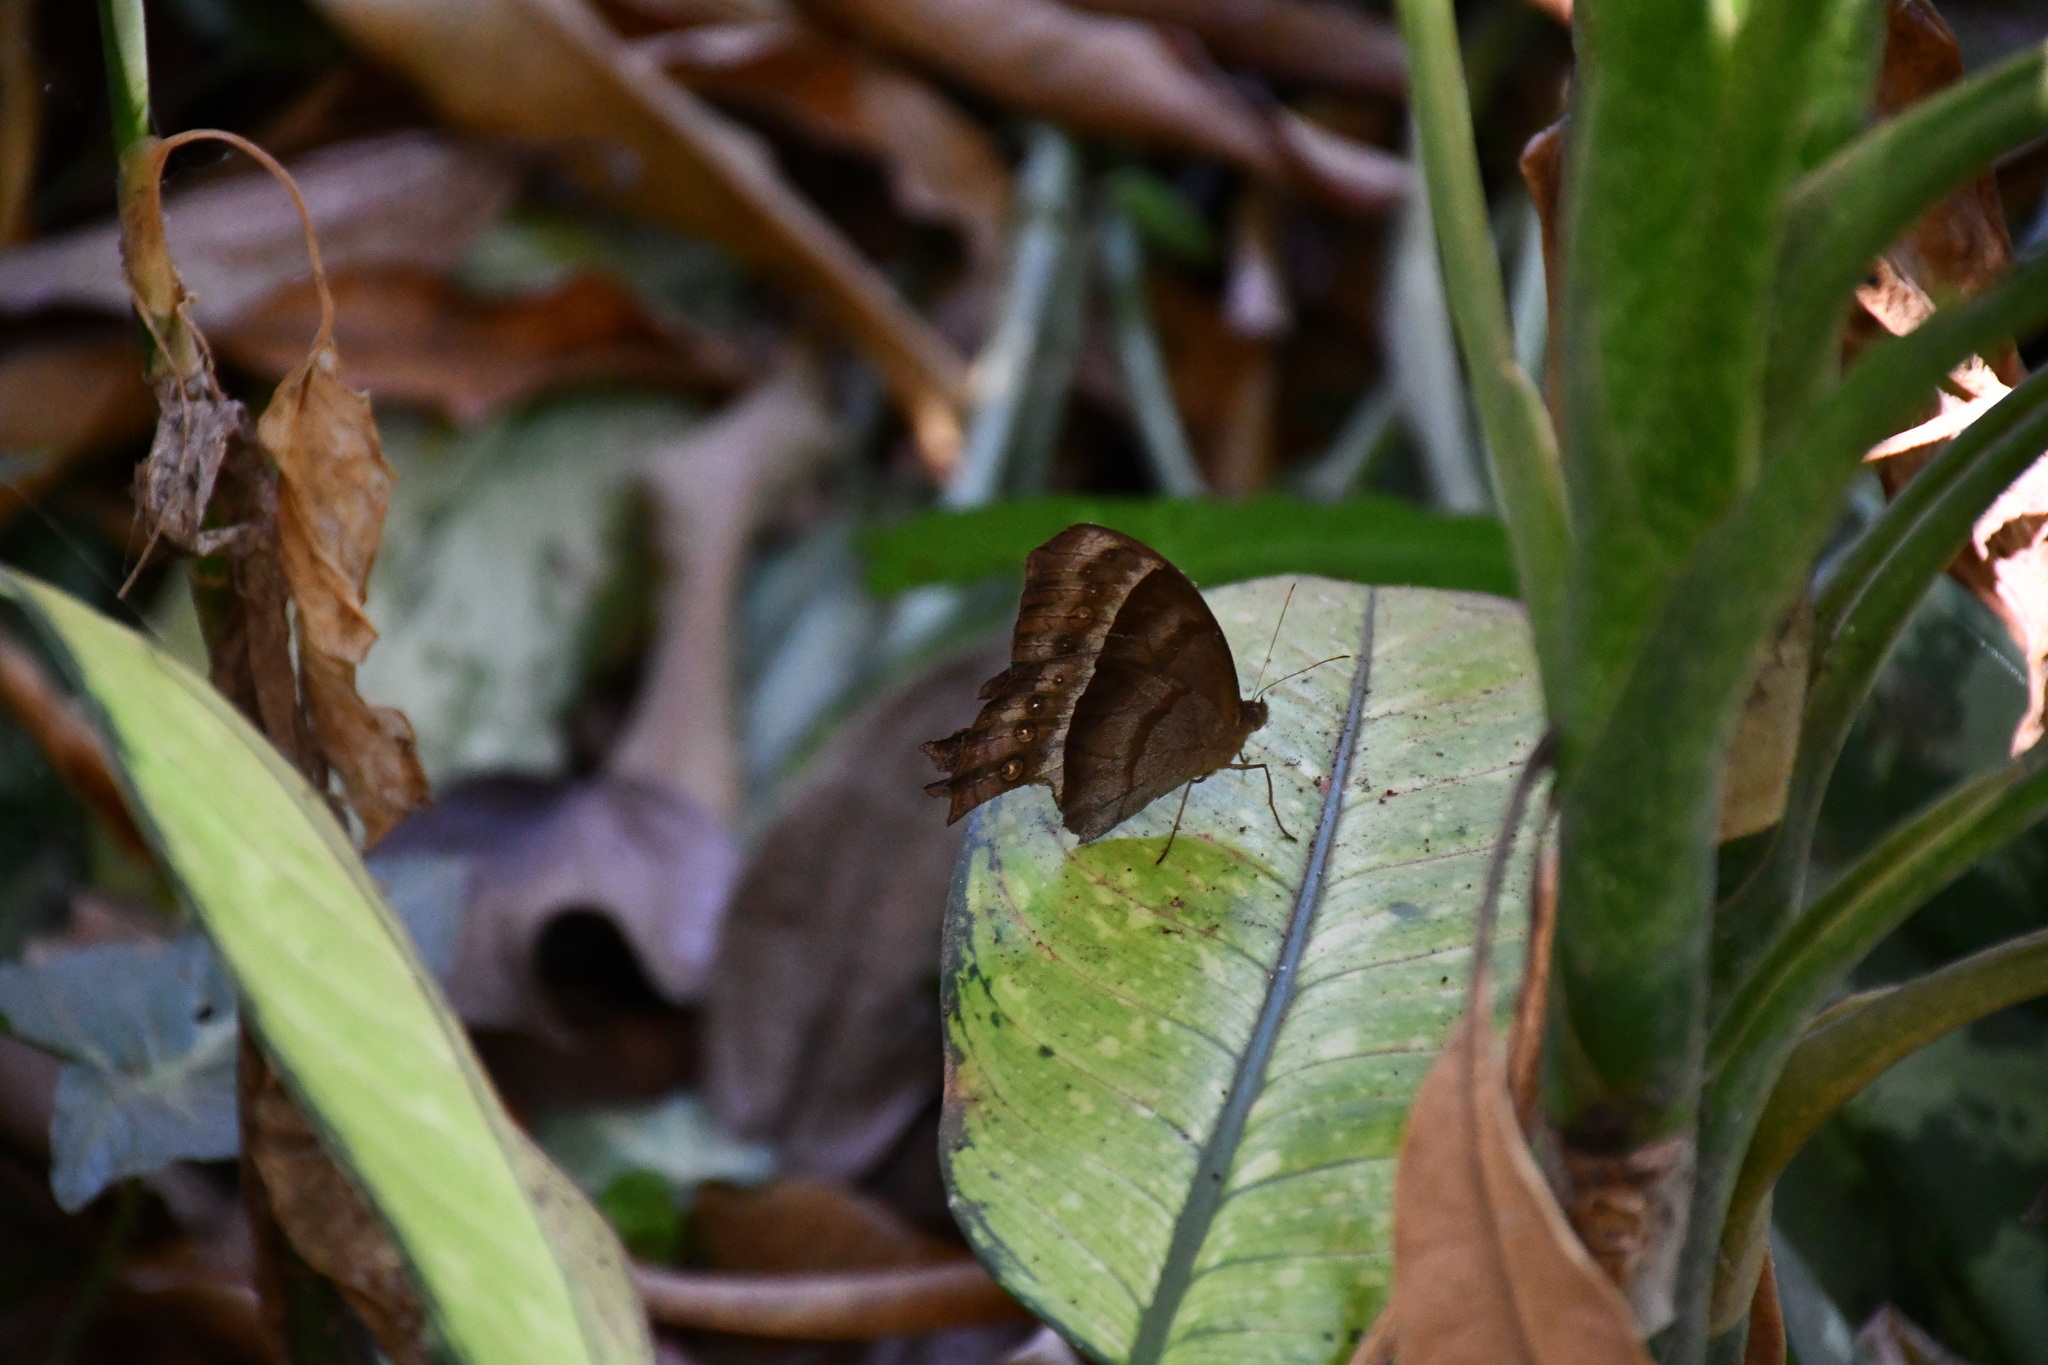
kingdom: Animalia
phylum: Arthropoda
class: Insecta
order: Lepidoptera
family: Nymphalidae
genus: Taygetis
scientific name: Taygetis thamyra
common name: Thamyra satyr
